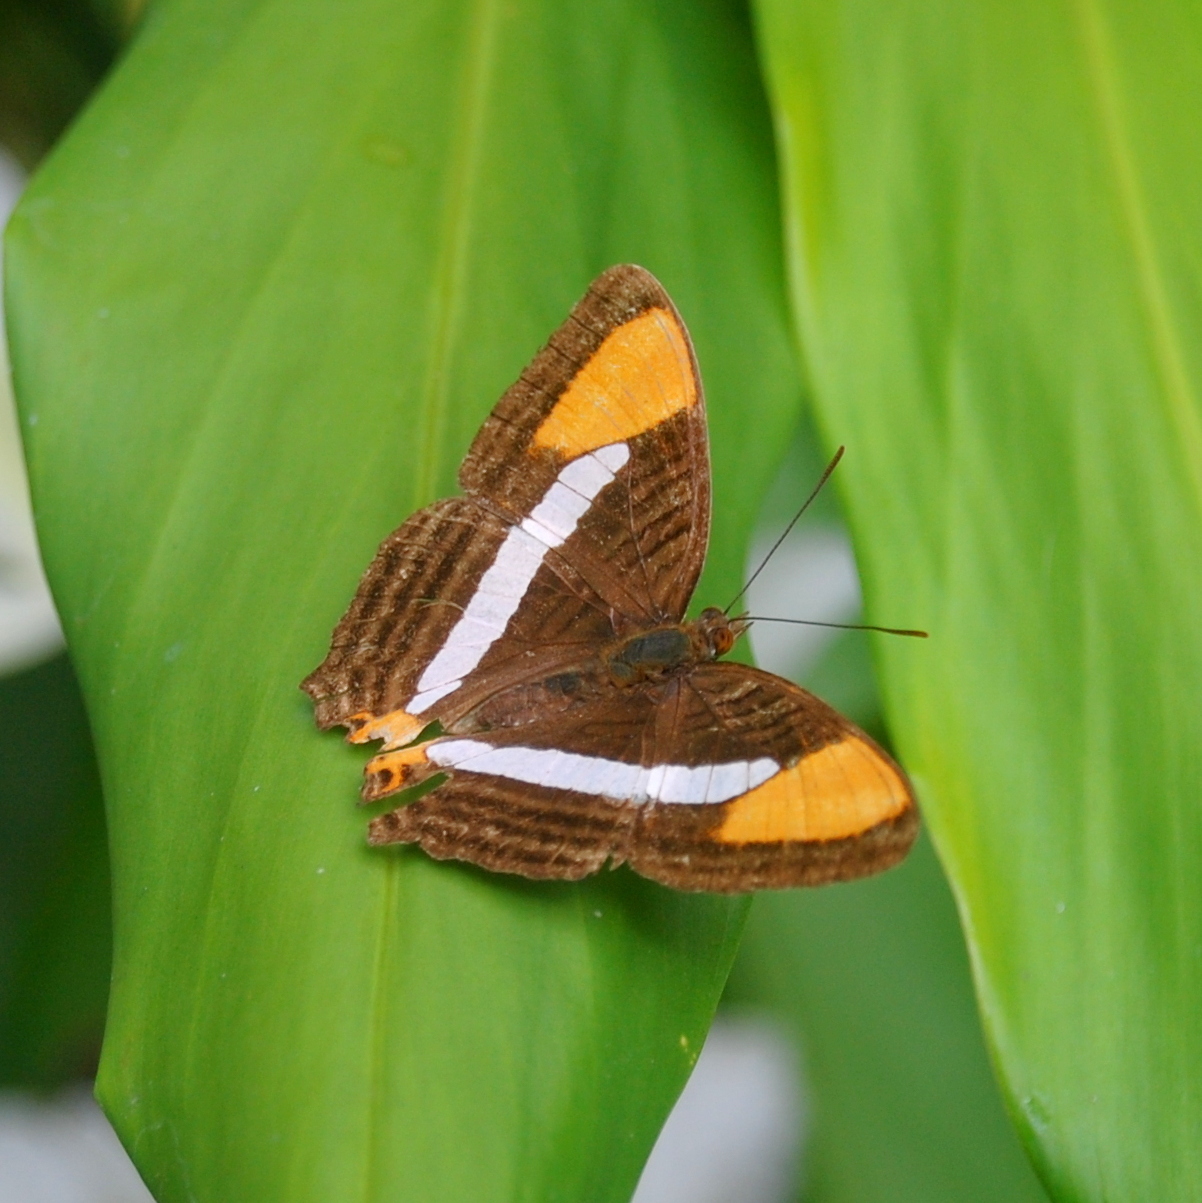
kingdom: Animalia
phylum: Arthropoda
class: Insecta
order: Lepidoptera
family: Nymphalidae
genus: Limenitis
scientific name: Limenitis syma
